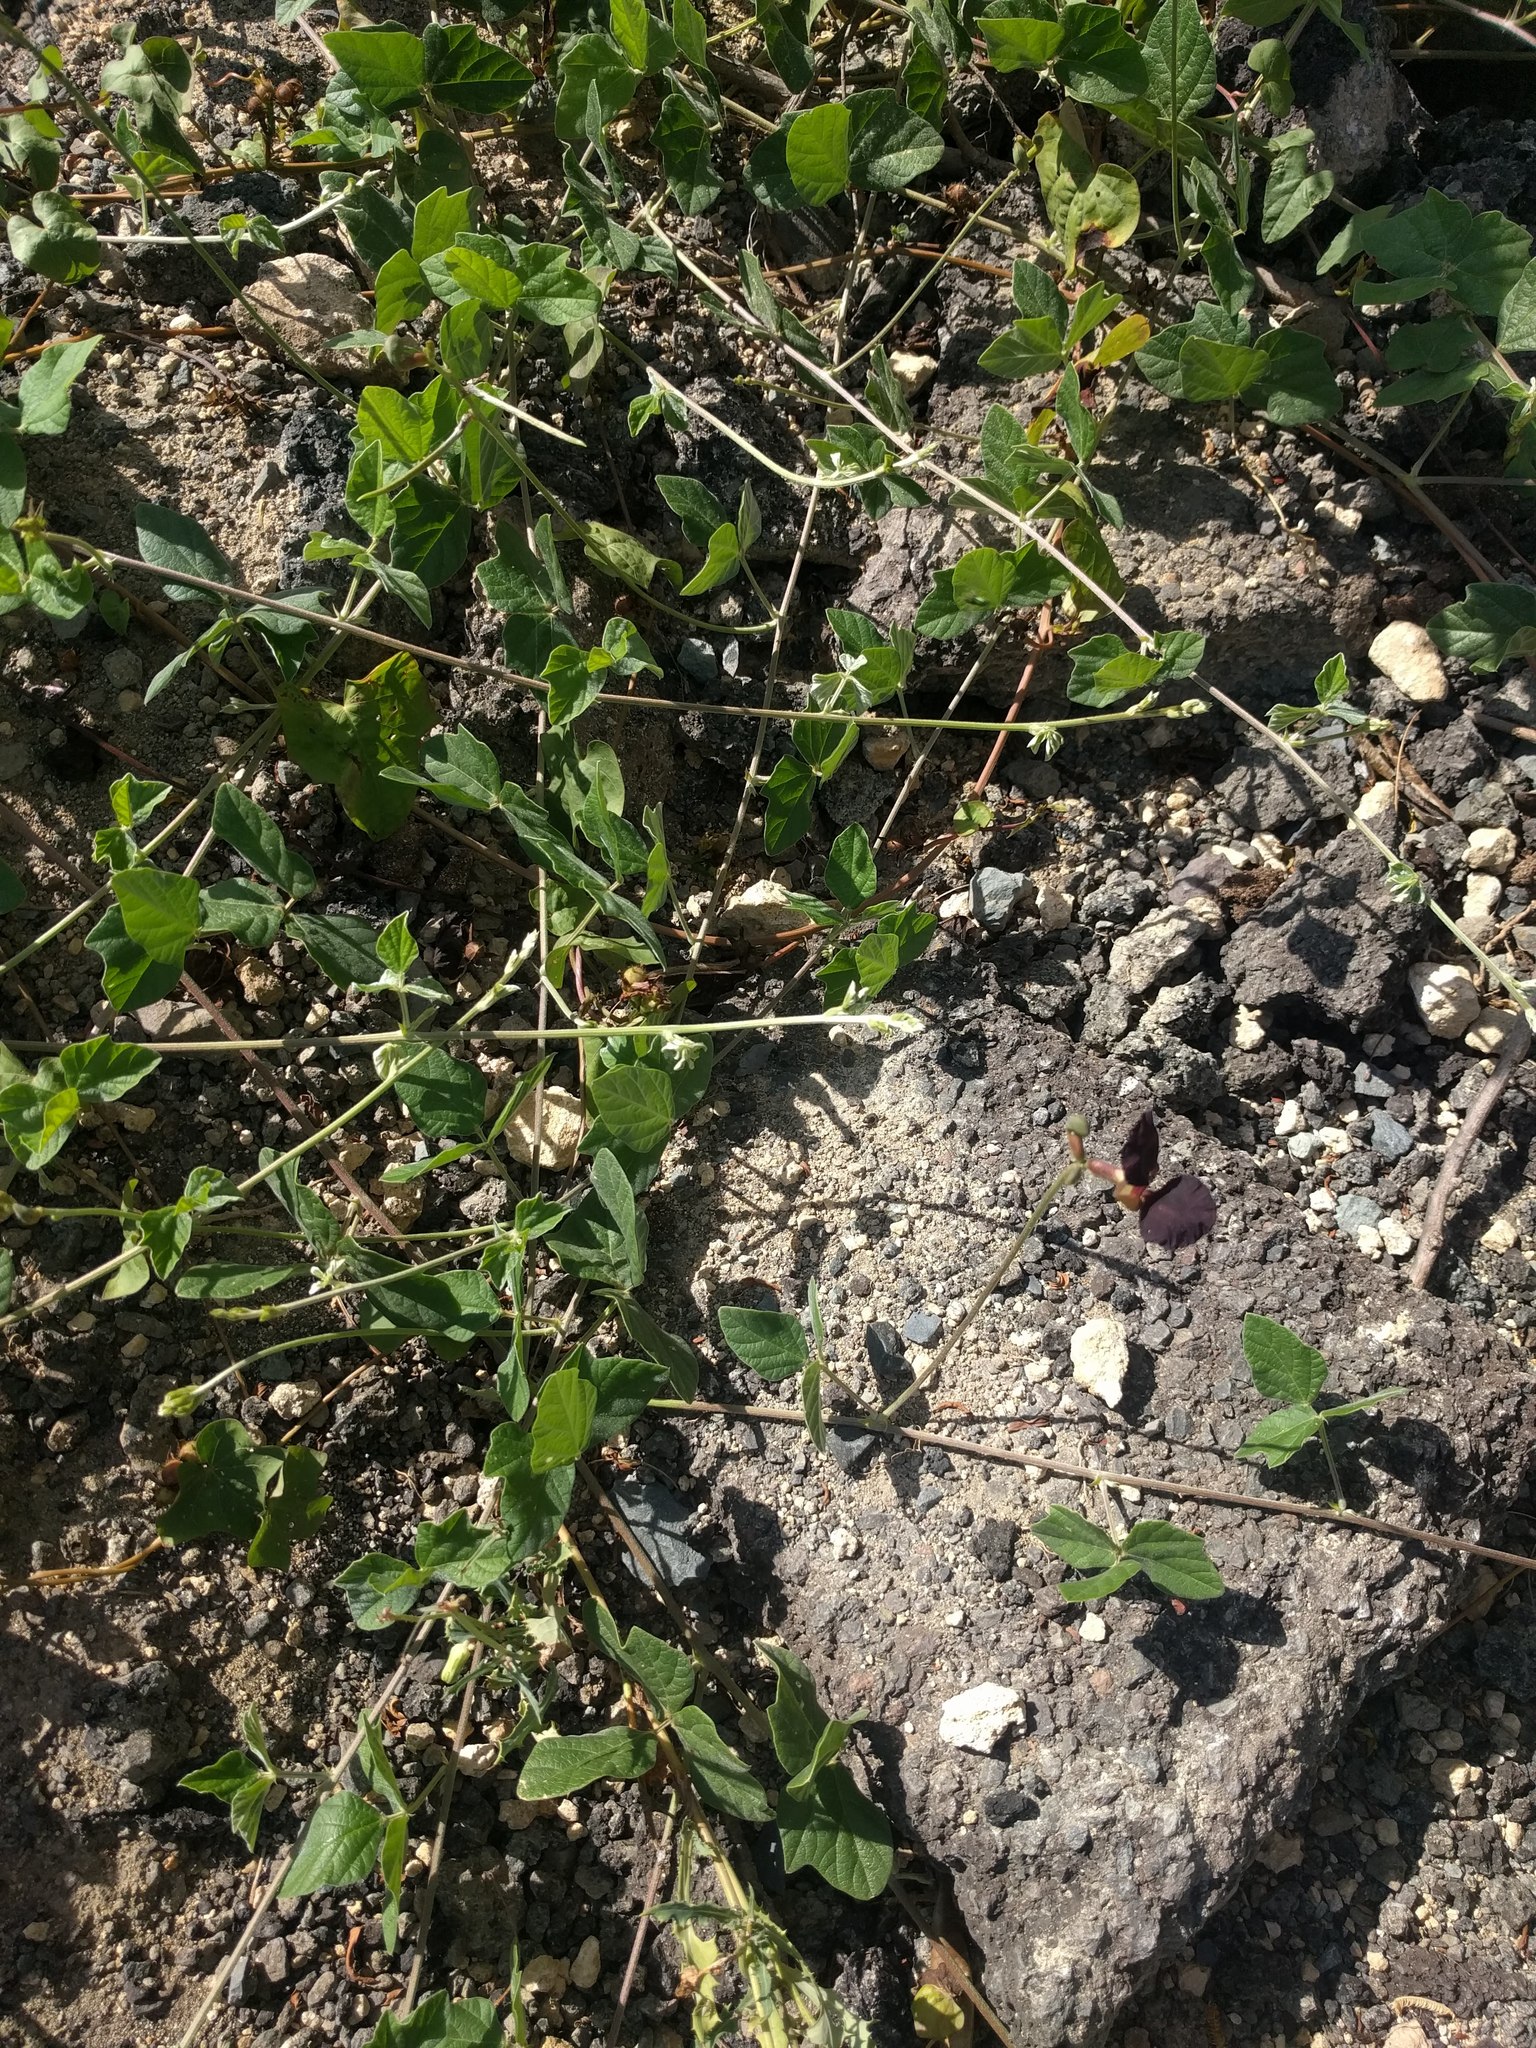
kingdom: Plantae
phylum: Tracheophyta
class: Magnoliopsida
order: Fabales
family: Fabaceae
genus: Macroptilium
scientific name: Macroptilium atropurpureum
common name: Purple bushbean
